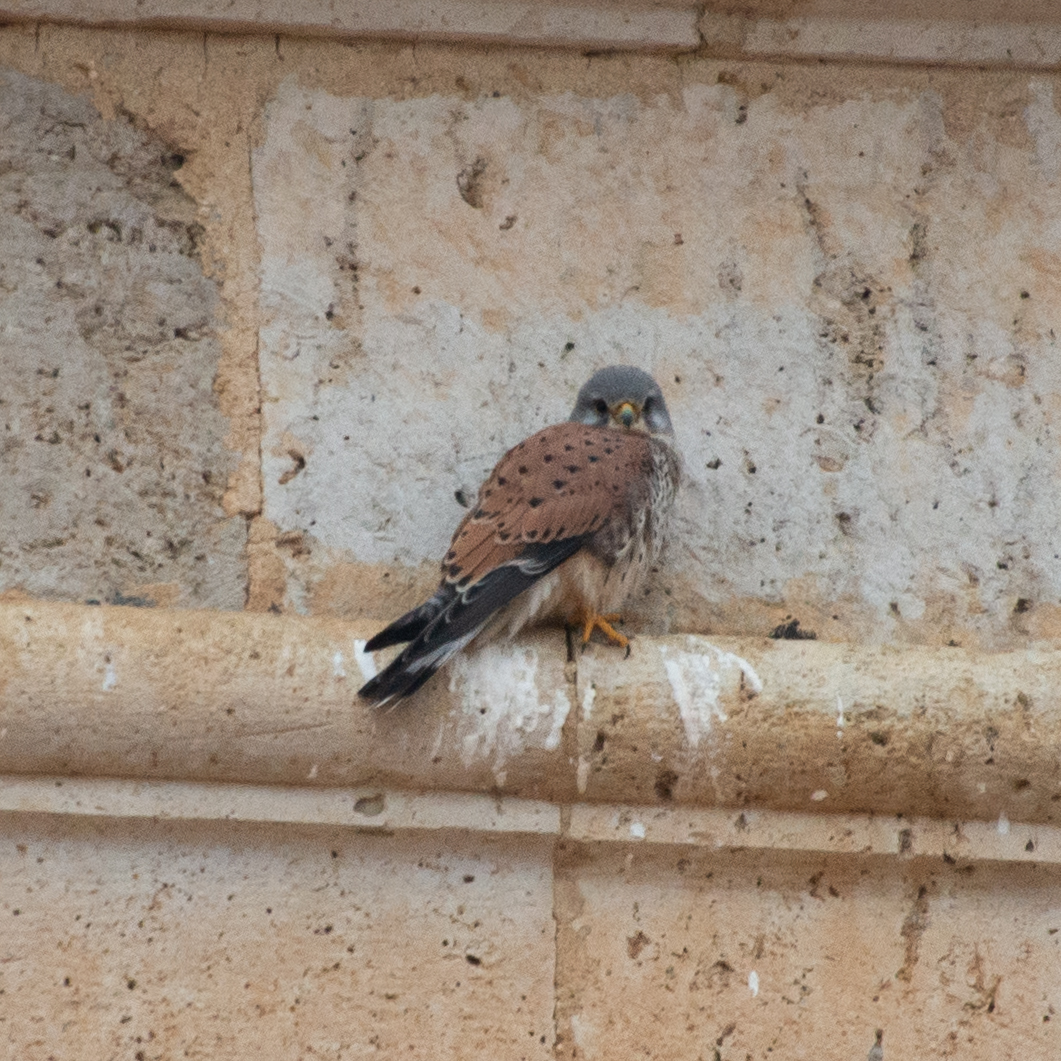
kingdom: Animalia
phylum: Chordata
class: Aves
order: Falconiformes
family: Falconidae
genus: Falco
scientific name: Falco tinnunculus
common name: Common kestrel
